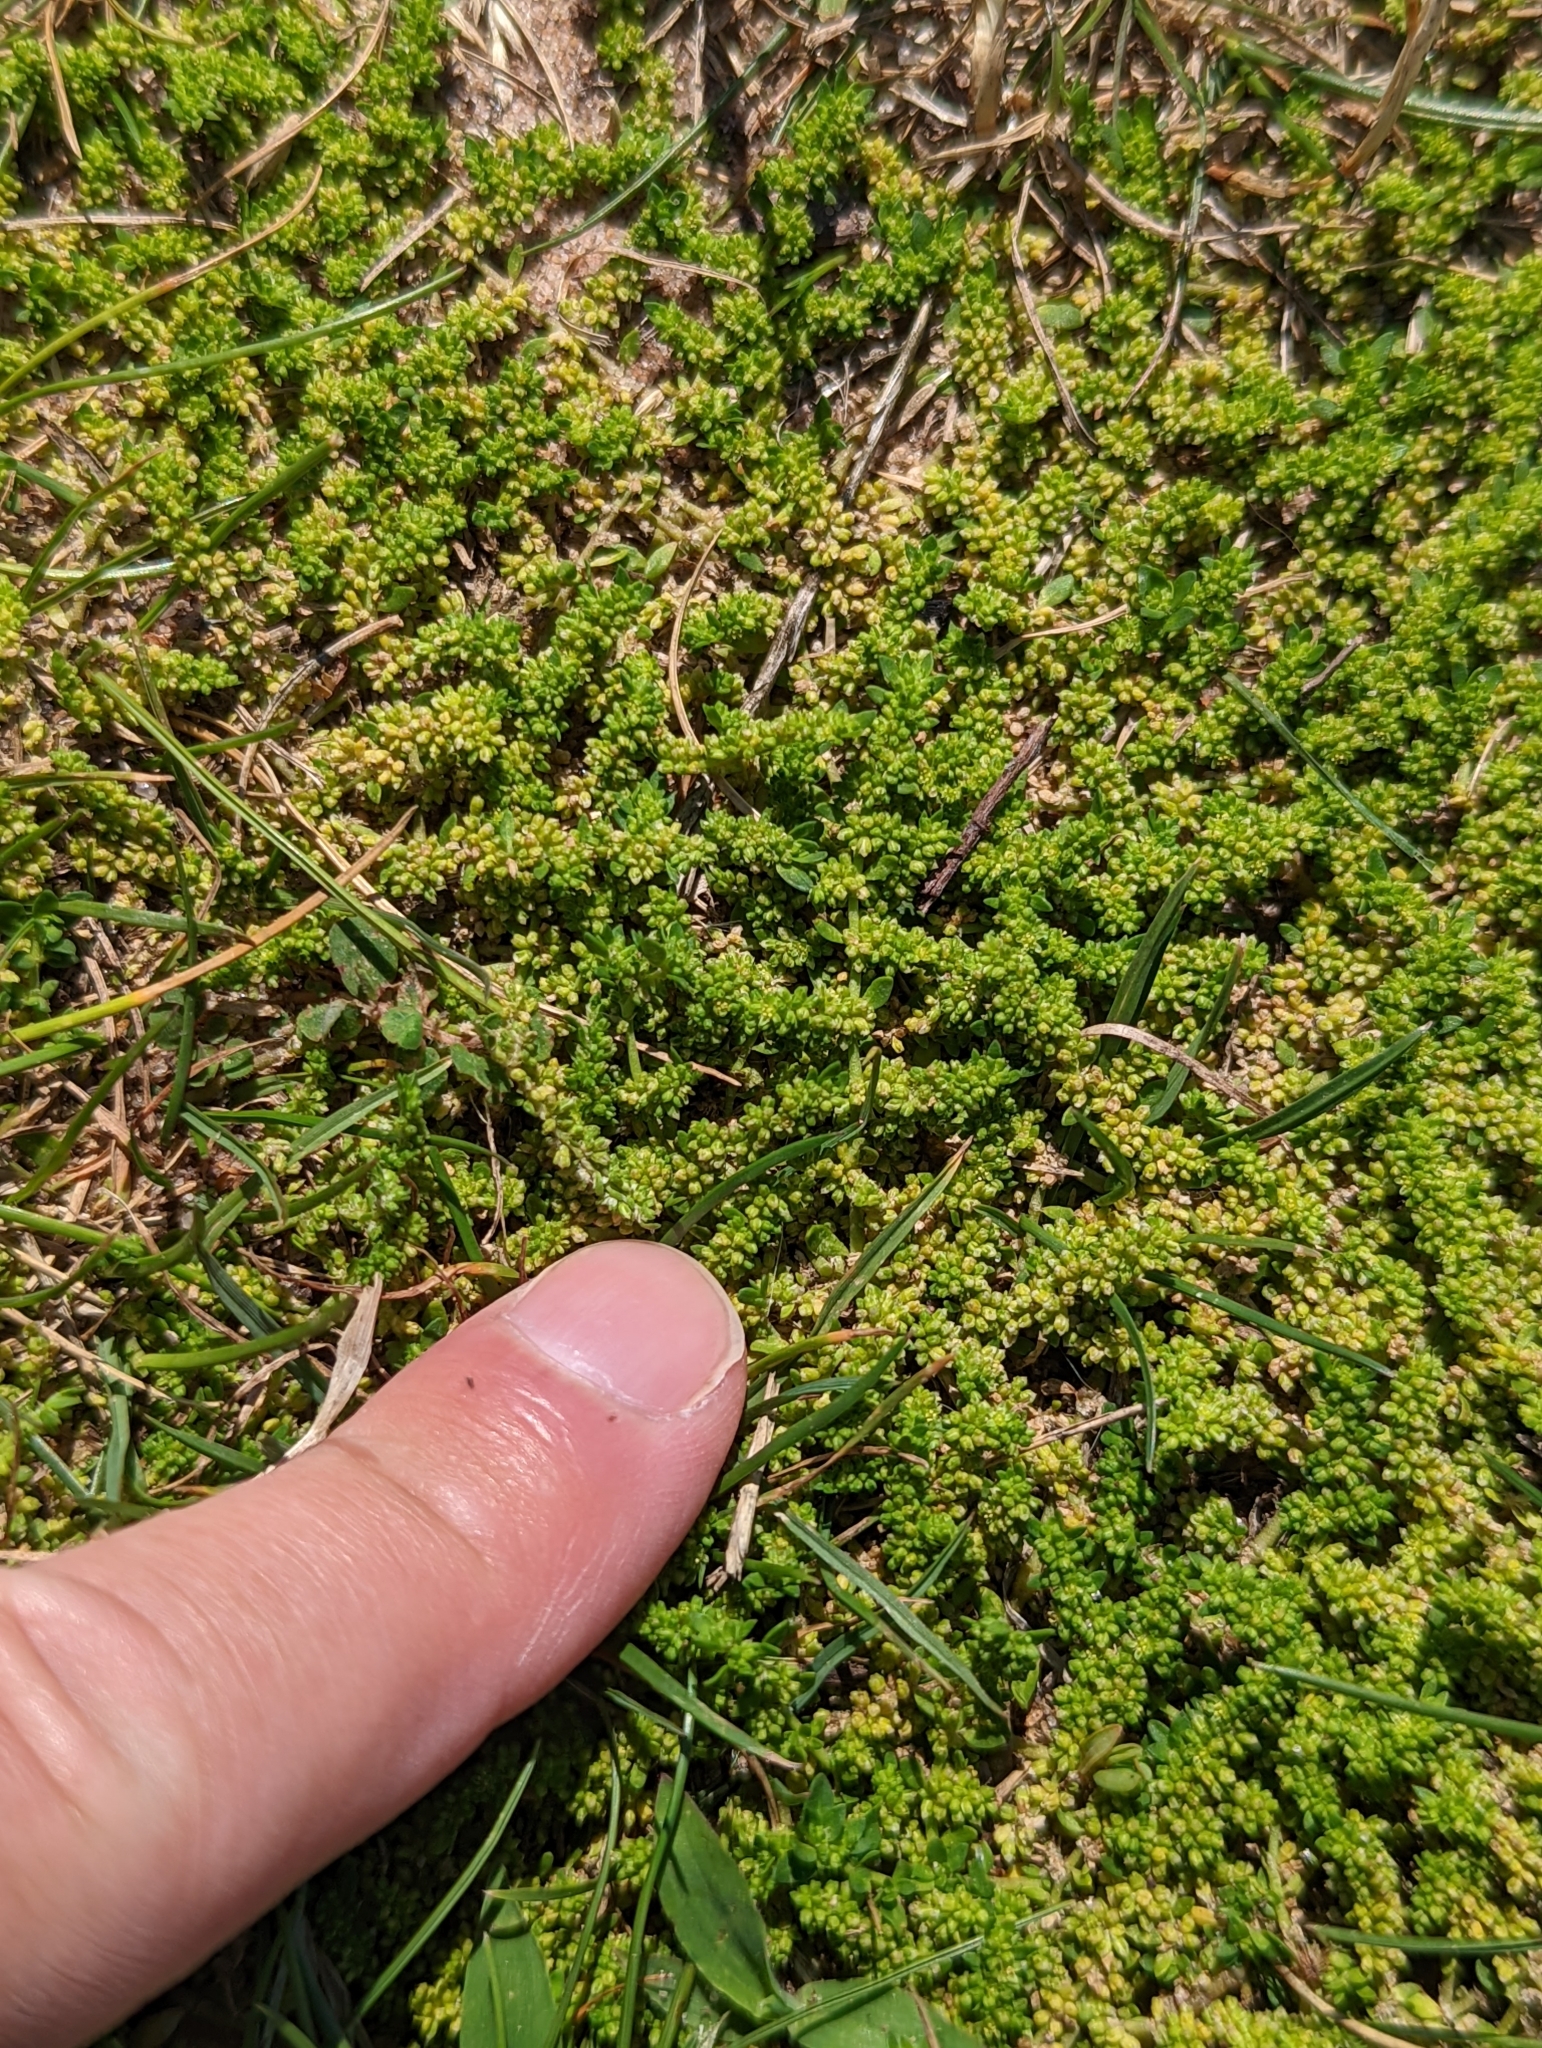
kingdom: Plantae
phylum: Tracheophyta
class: Magnoliopsida
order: Caryophyllales
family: Caryophyllaceae
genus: Herniaria
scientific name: Herniaria glabra
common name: Smooth rupturewort
